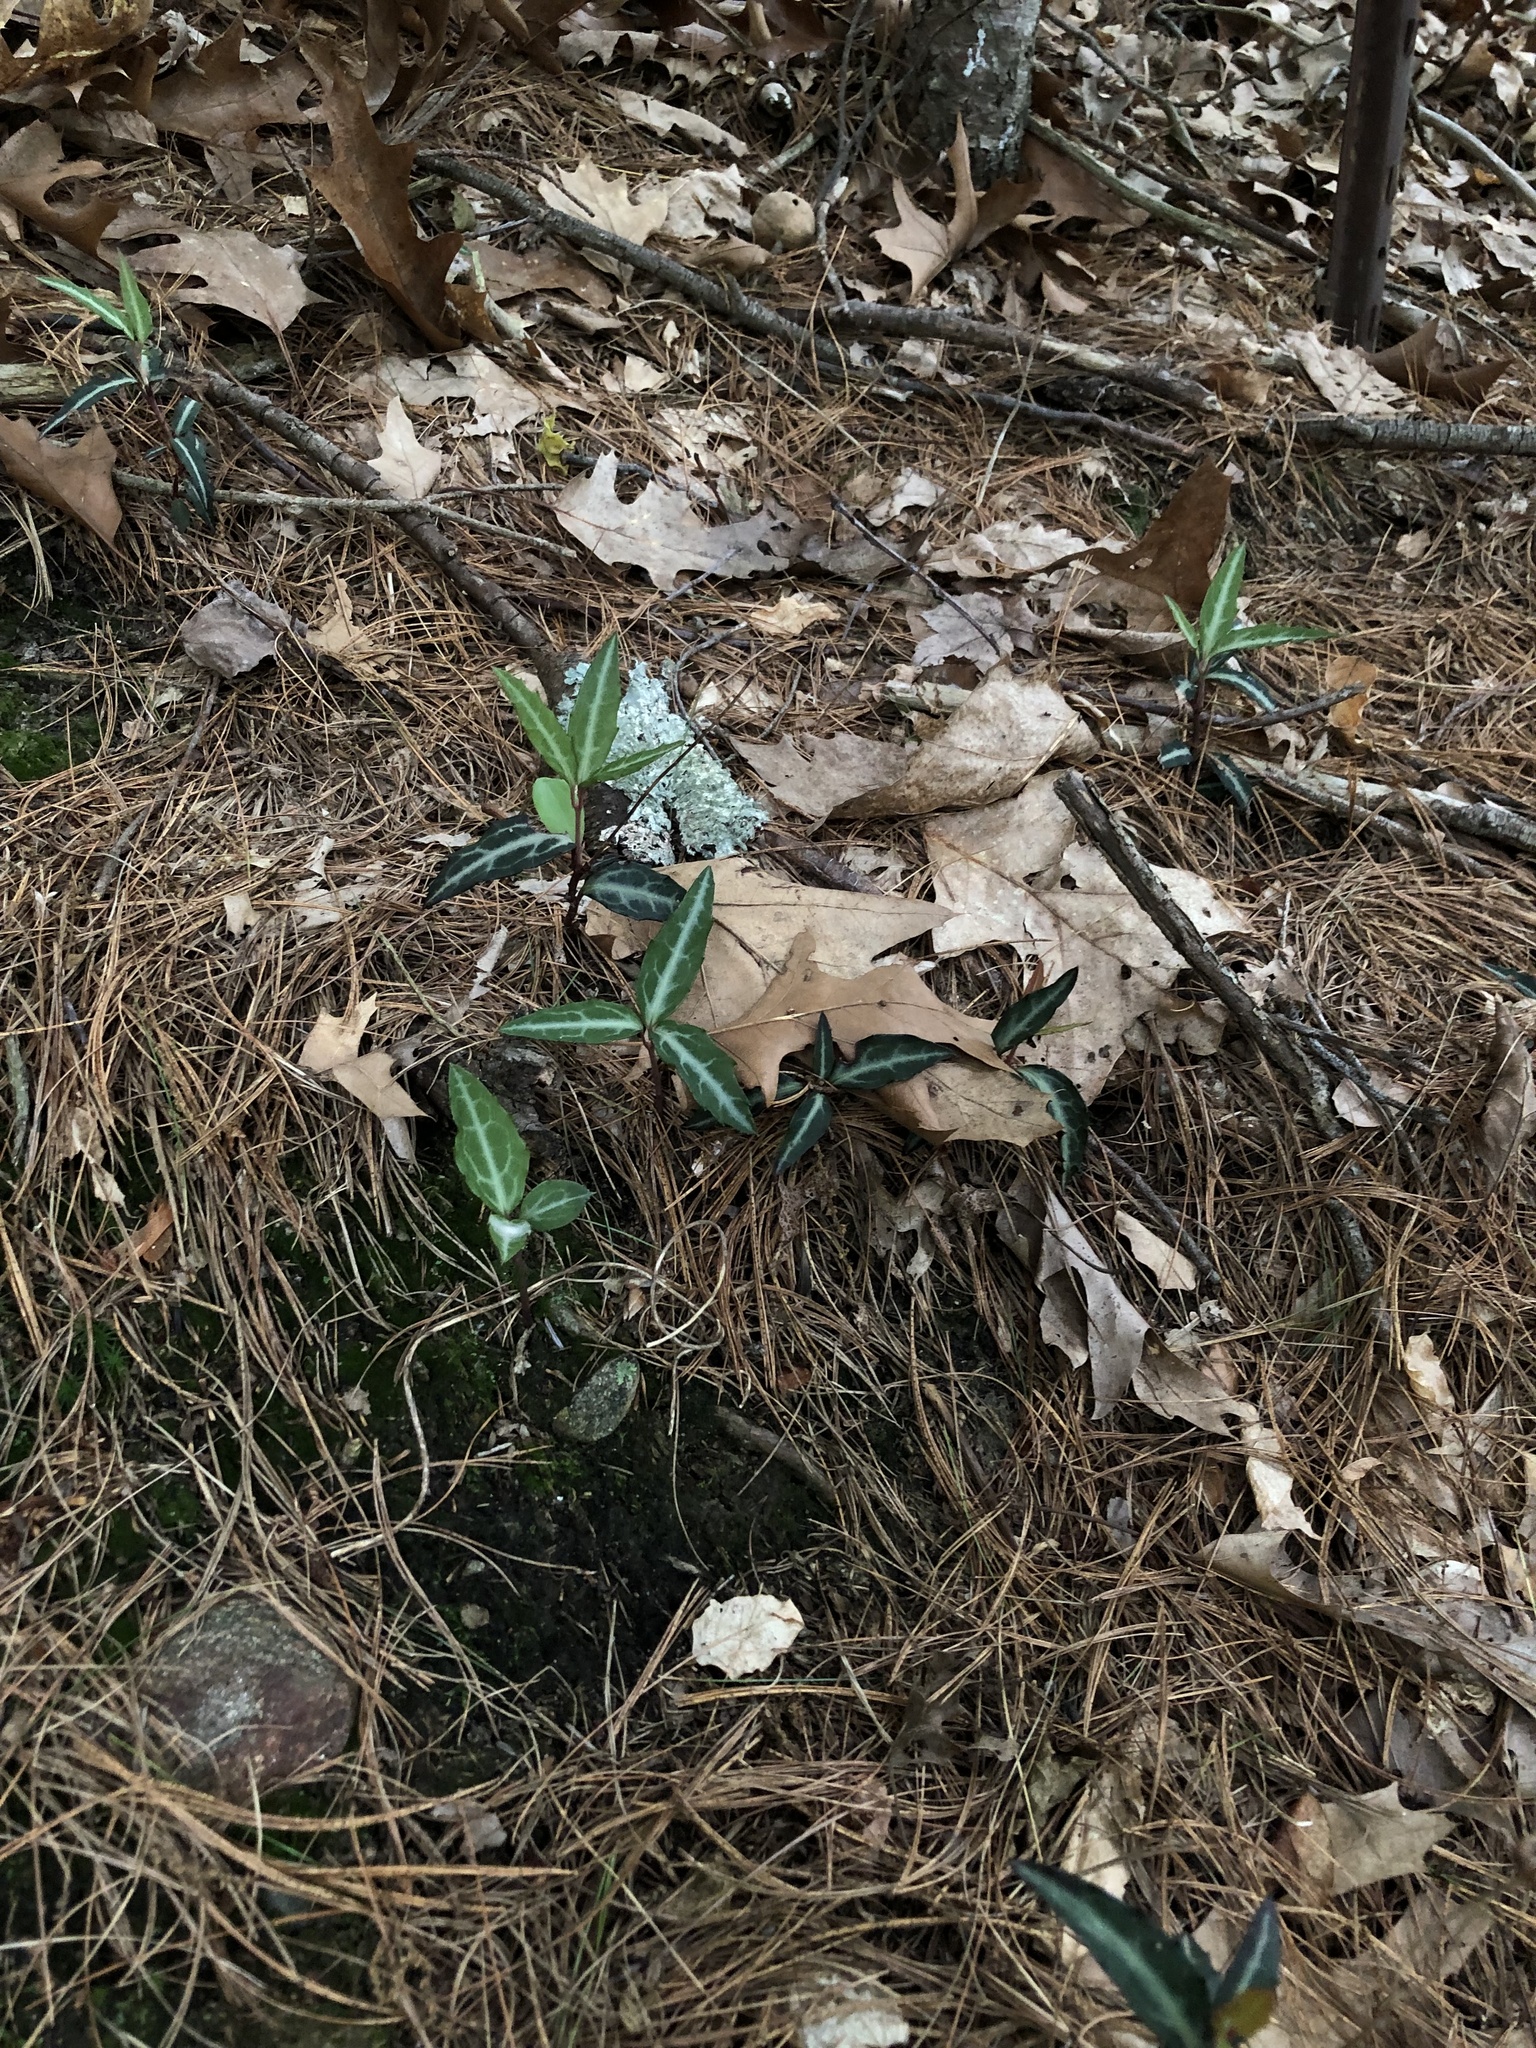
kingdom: Plantae
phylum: Tracheophyta
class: Magnoliopsida
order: Ericales
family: Ericaceae
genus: Chimaphila
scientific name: Chimaphila maculata
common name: Spotted pipsissewa
